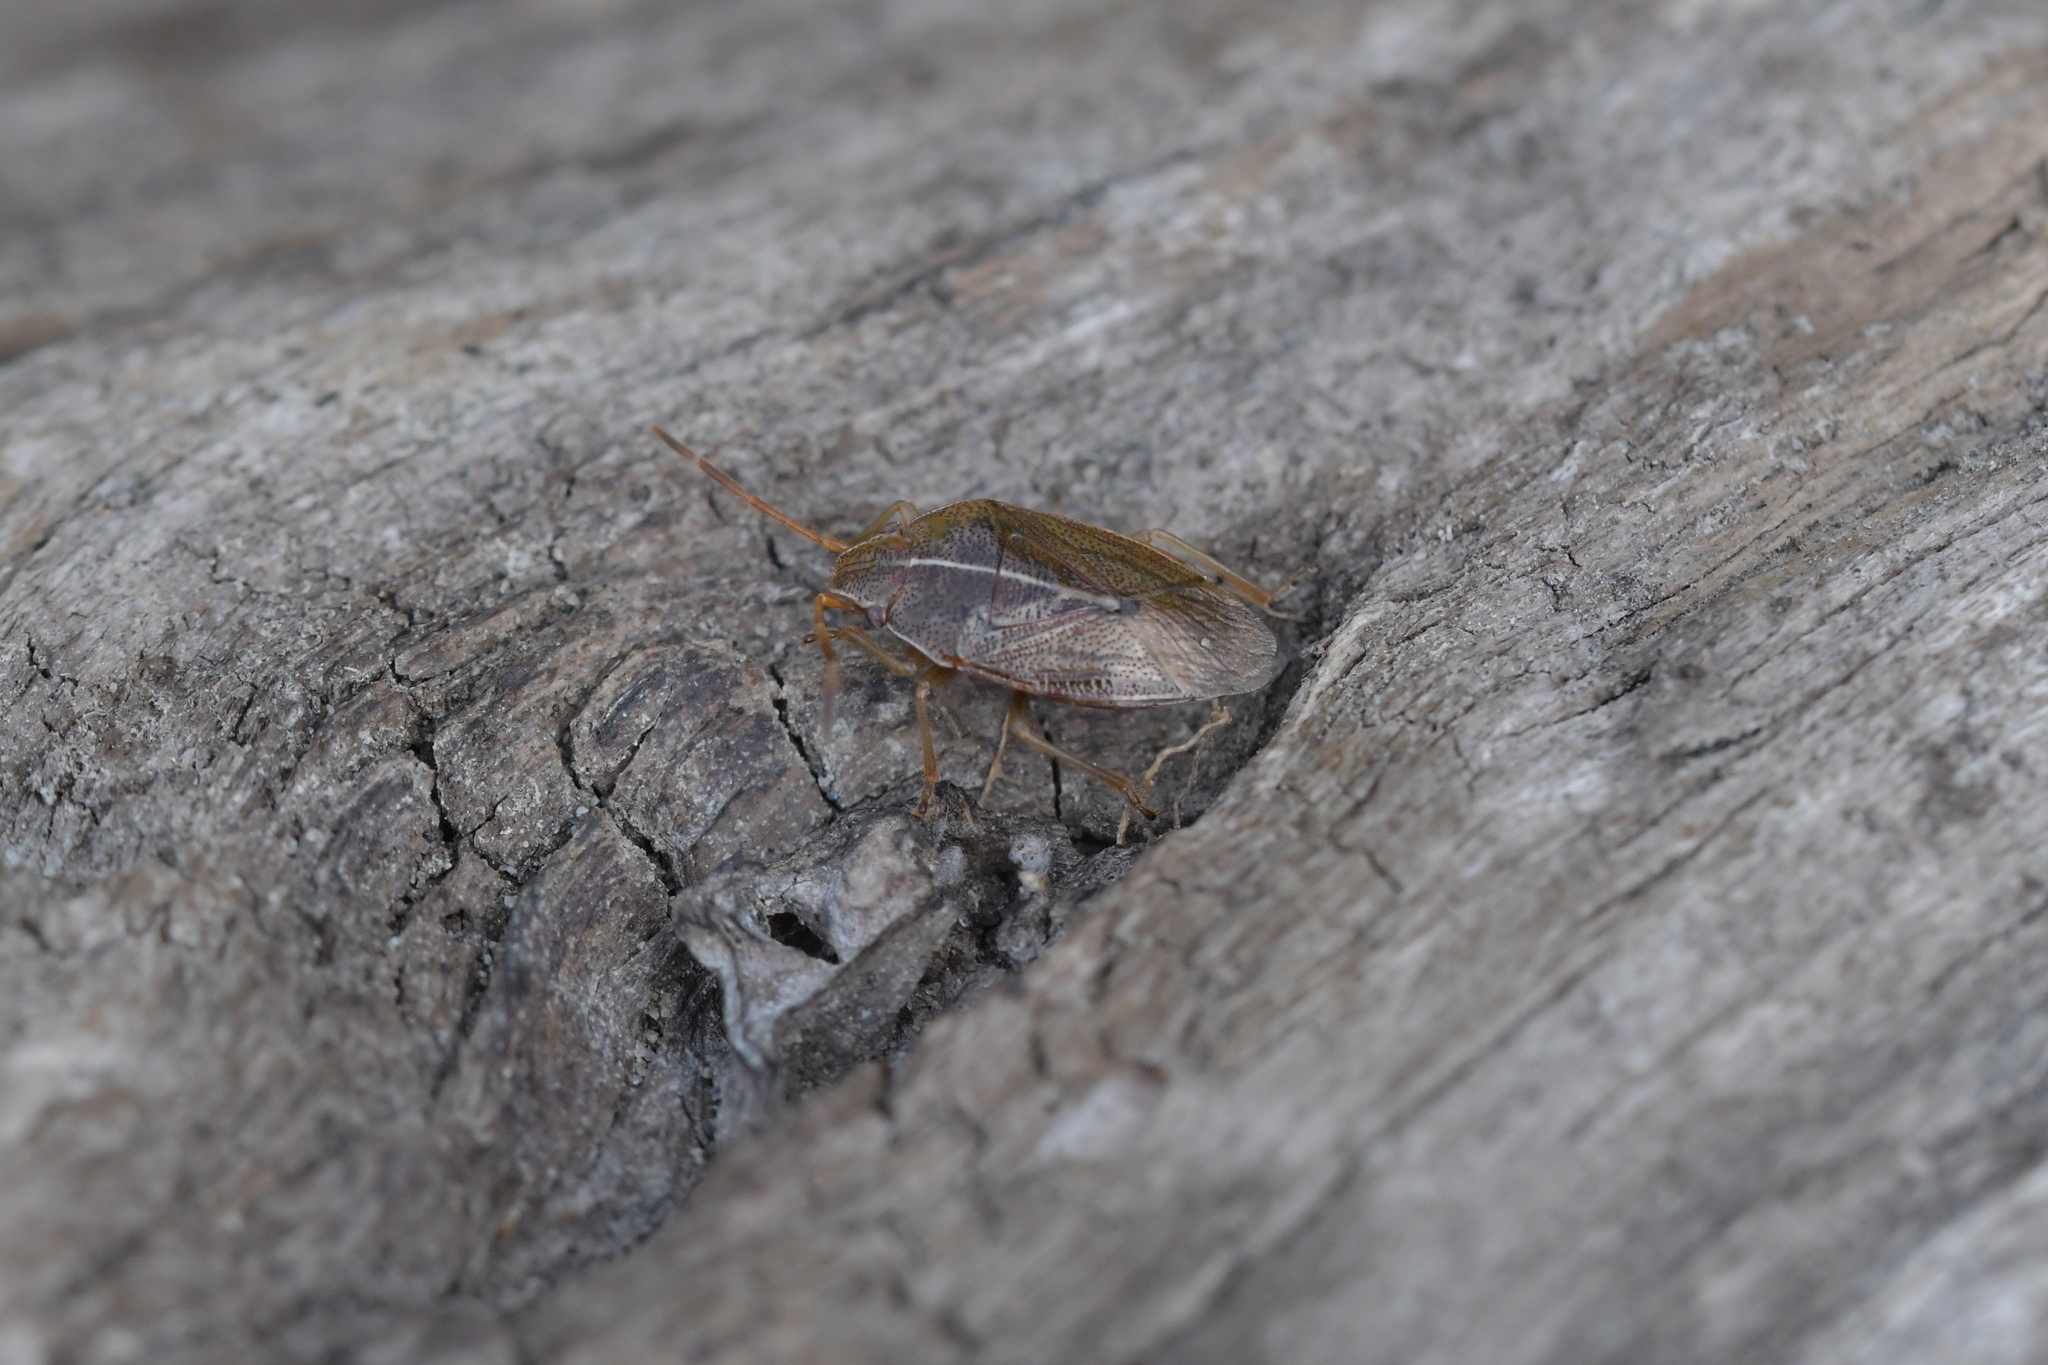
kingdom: Animalia
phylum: Arthropoda
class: Insecta
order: Hemiptera
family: Acanthosomatidae
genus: Rhopalimorpha
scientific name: Rhopalimorpha lineolaris
